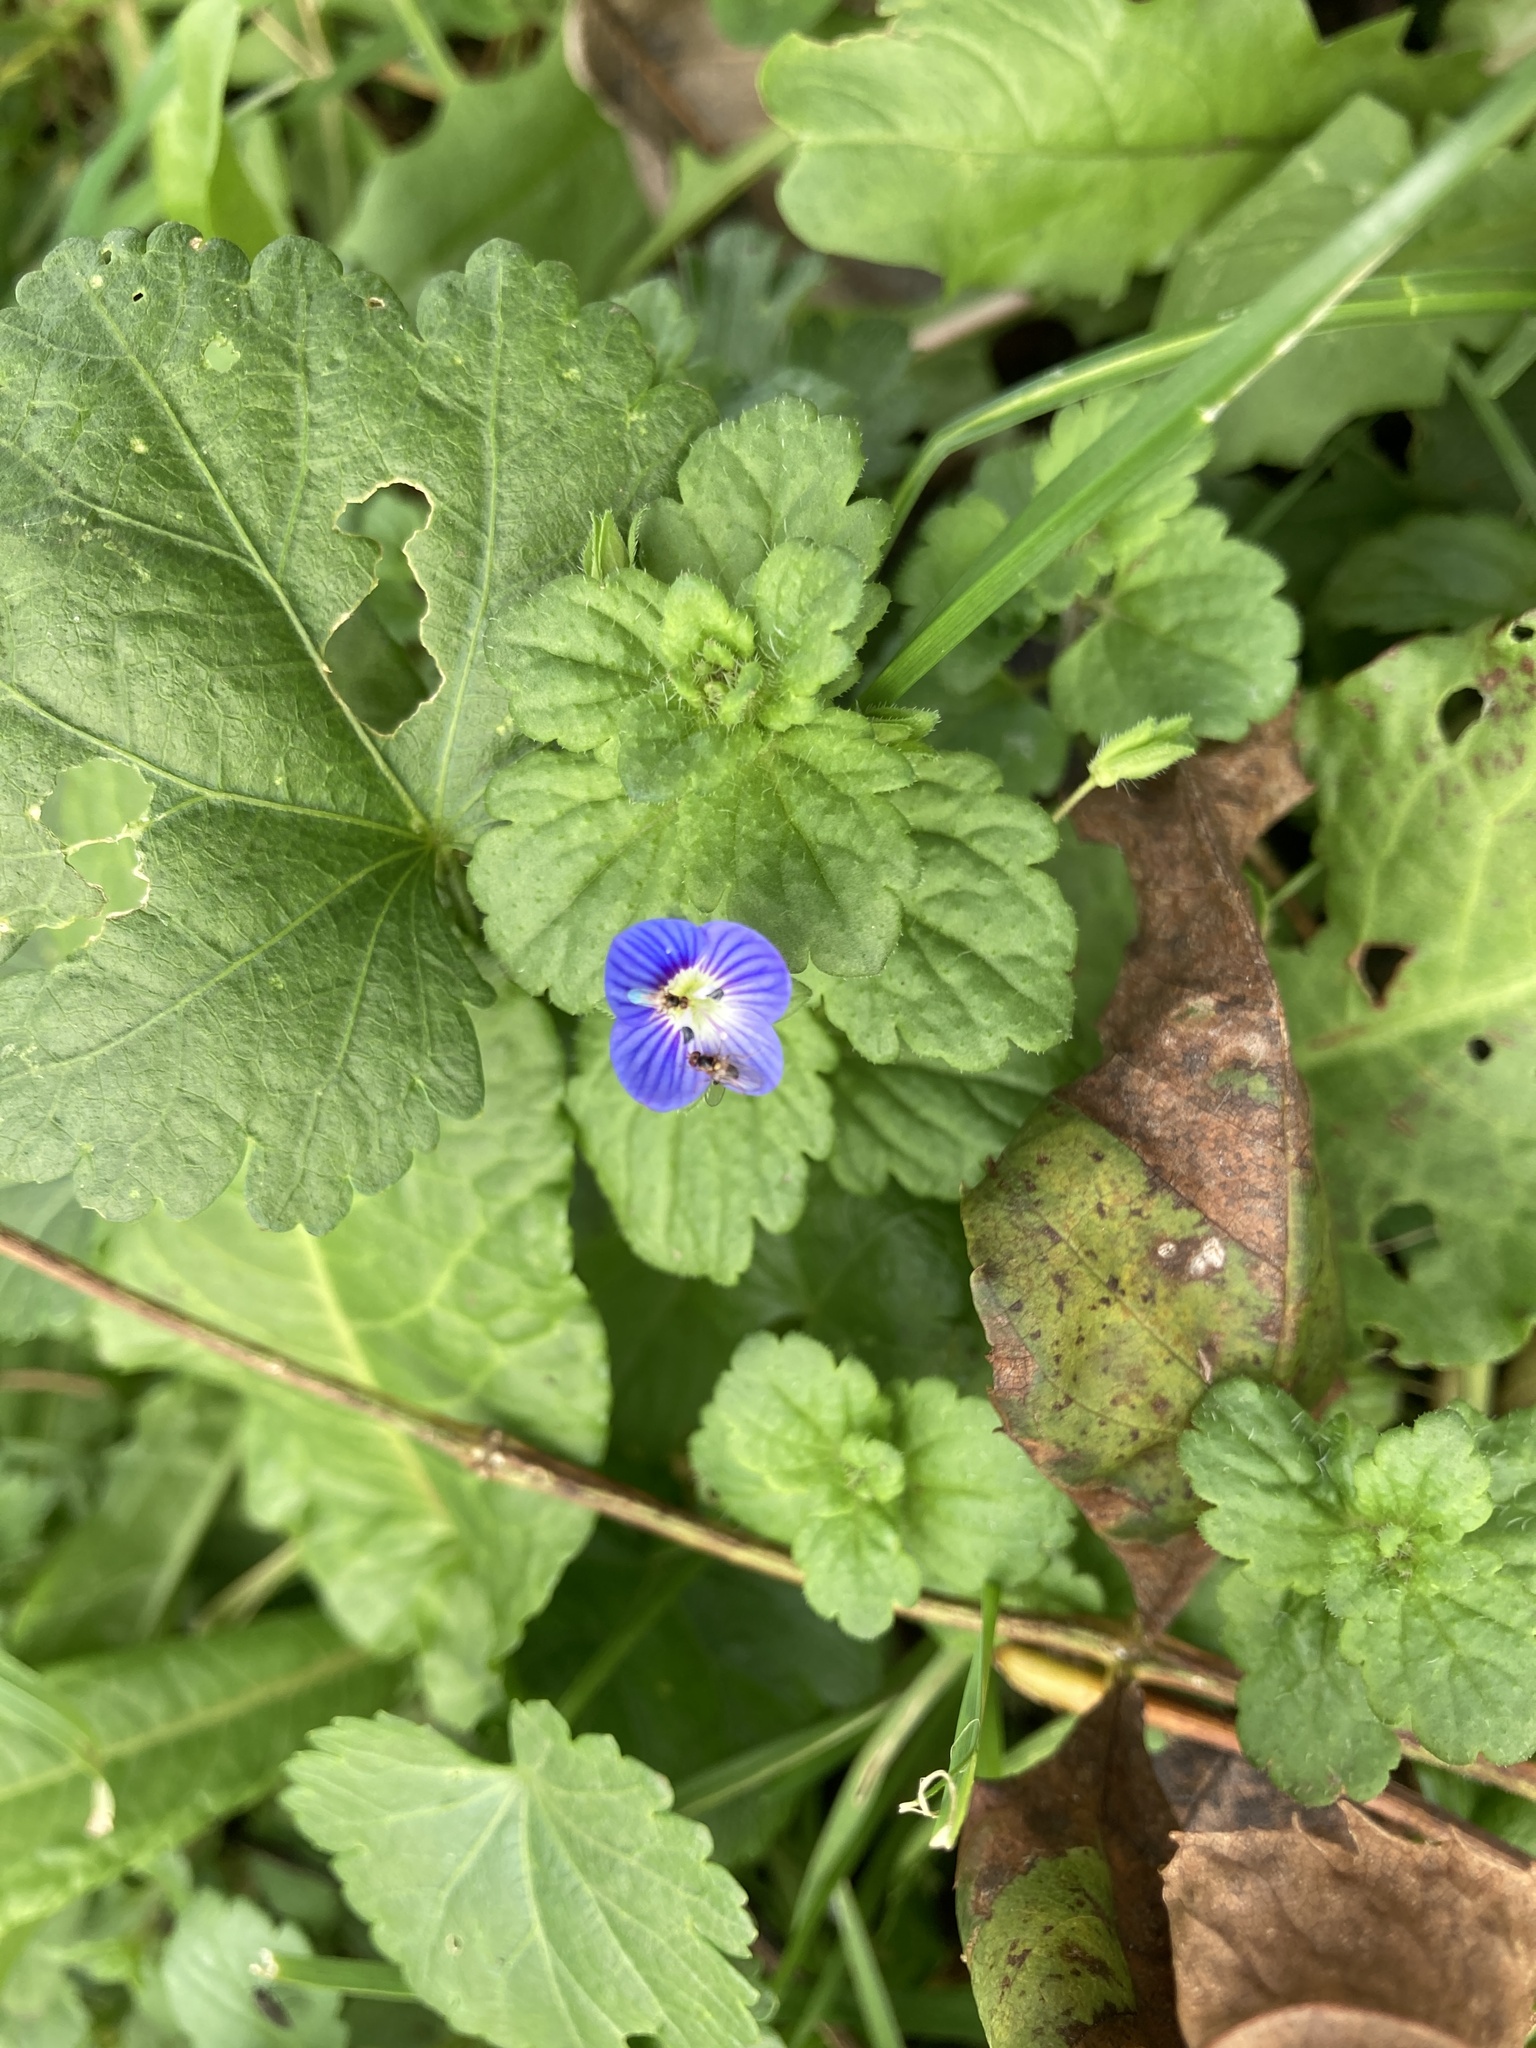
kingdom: Plantae
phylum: Tracheophyta
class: Magnoliopsida
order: Lamiales
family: Plantaginaceae
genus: Veronica
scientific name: Veronica persica
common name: Common field-speedwell
